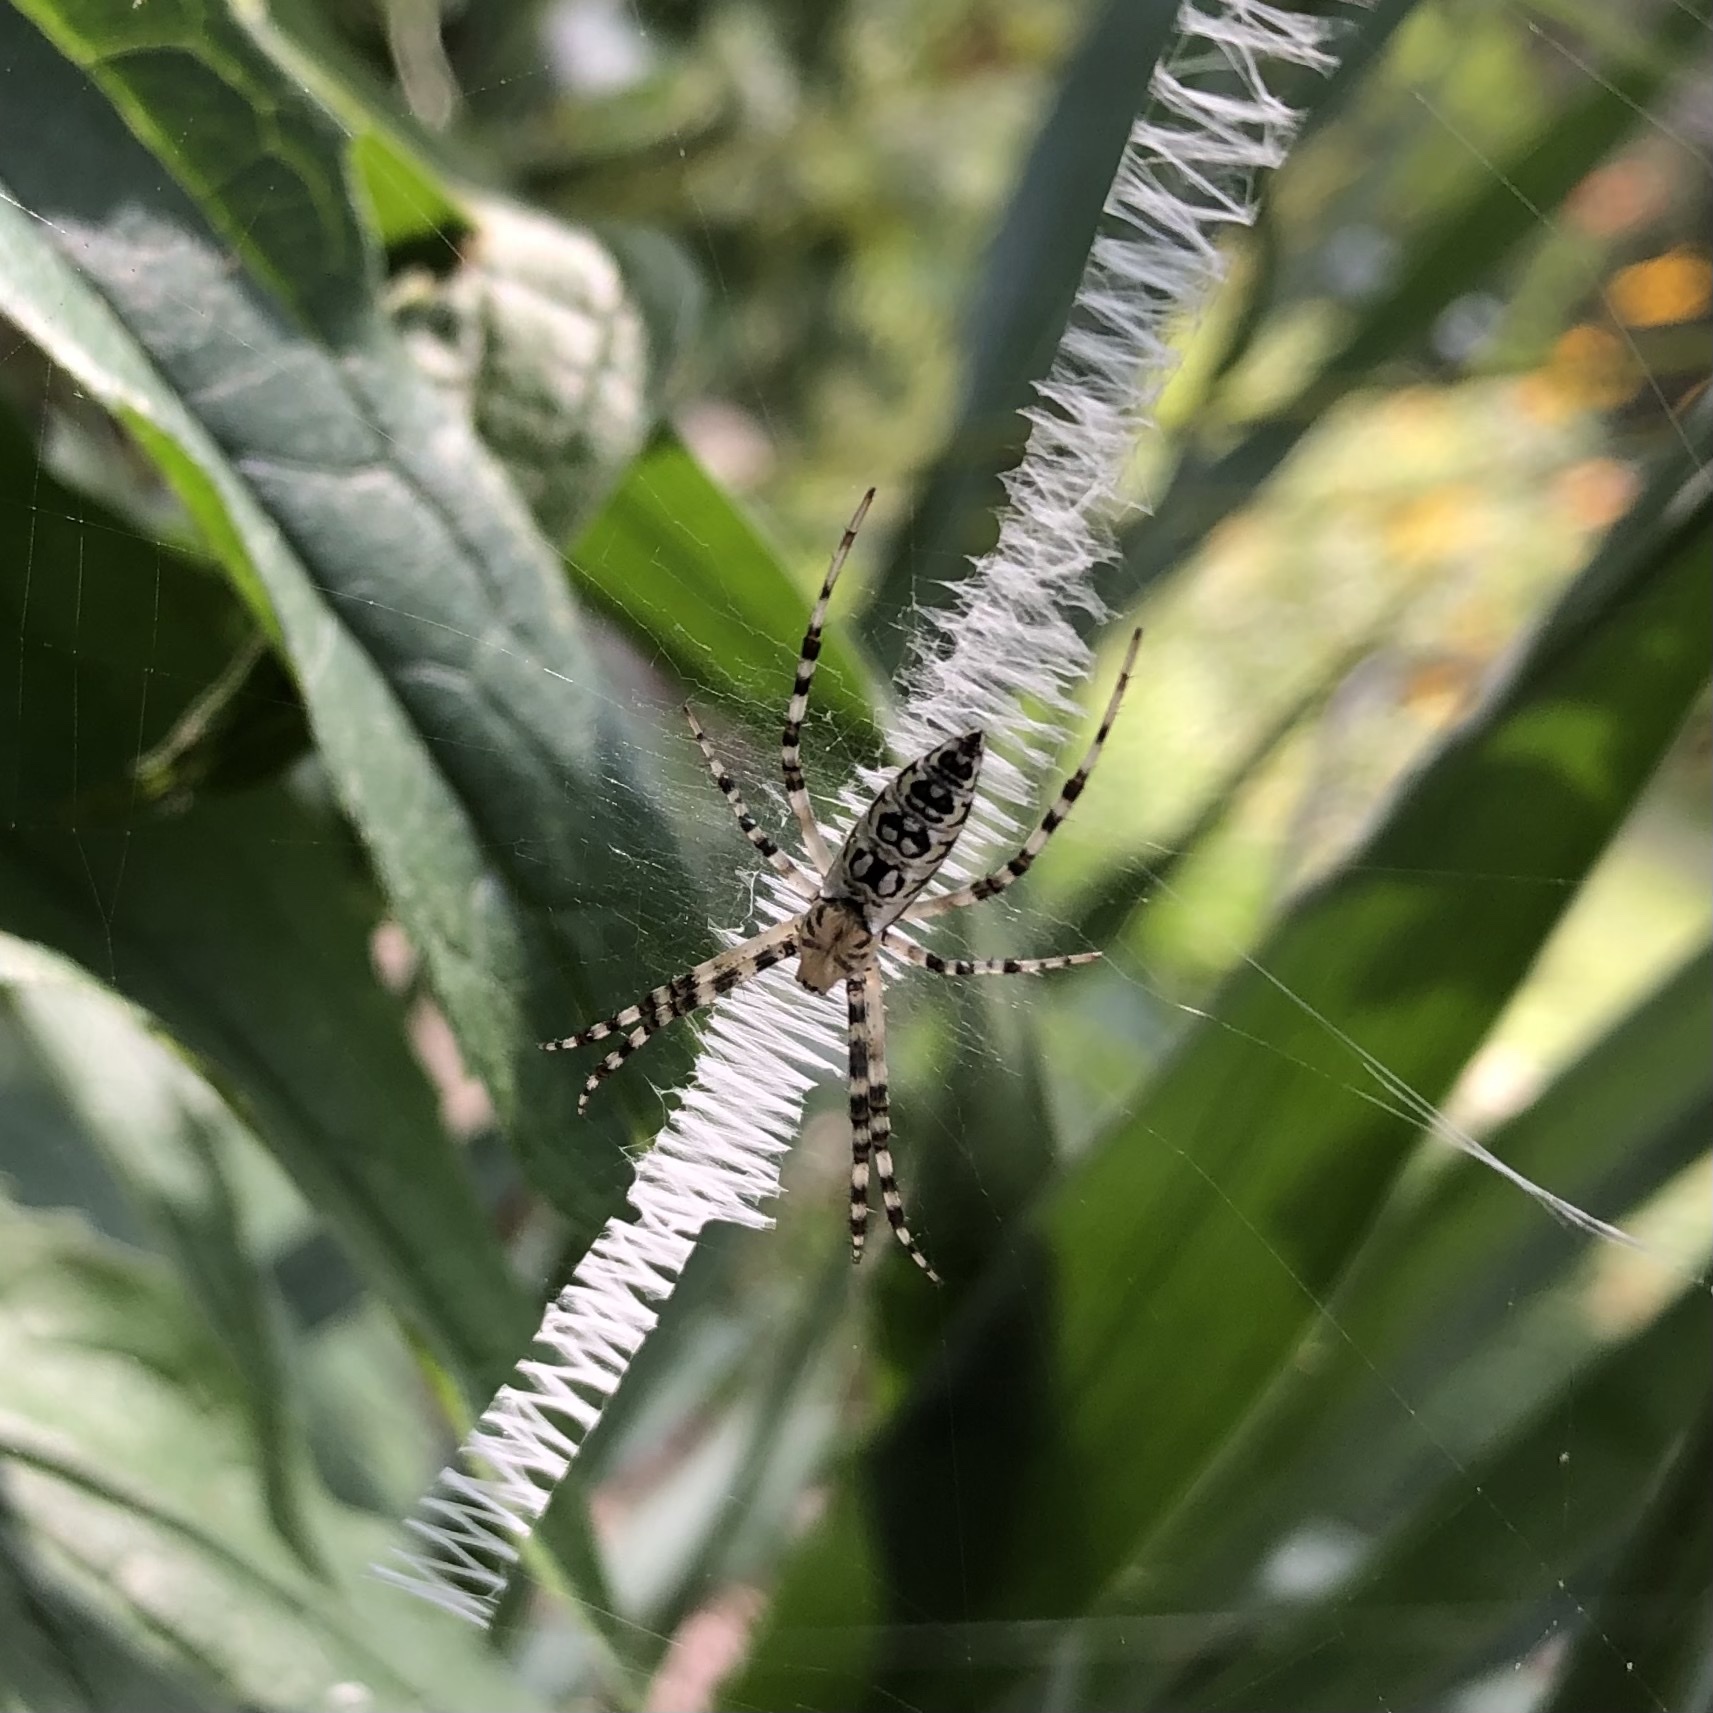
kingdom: Animalia
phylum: Arthropoda
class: Arachnida
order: Araneae
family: Araneidae
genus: Argiope
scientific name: Argiope aurantia
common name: Orb weavers
